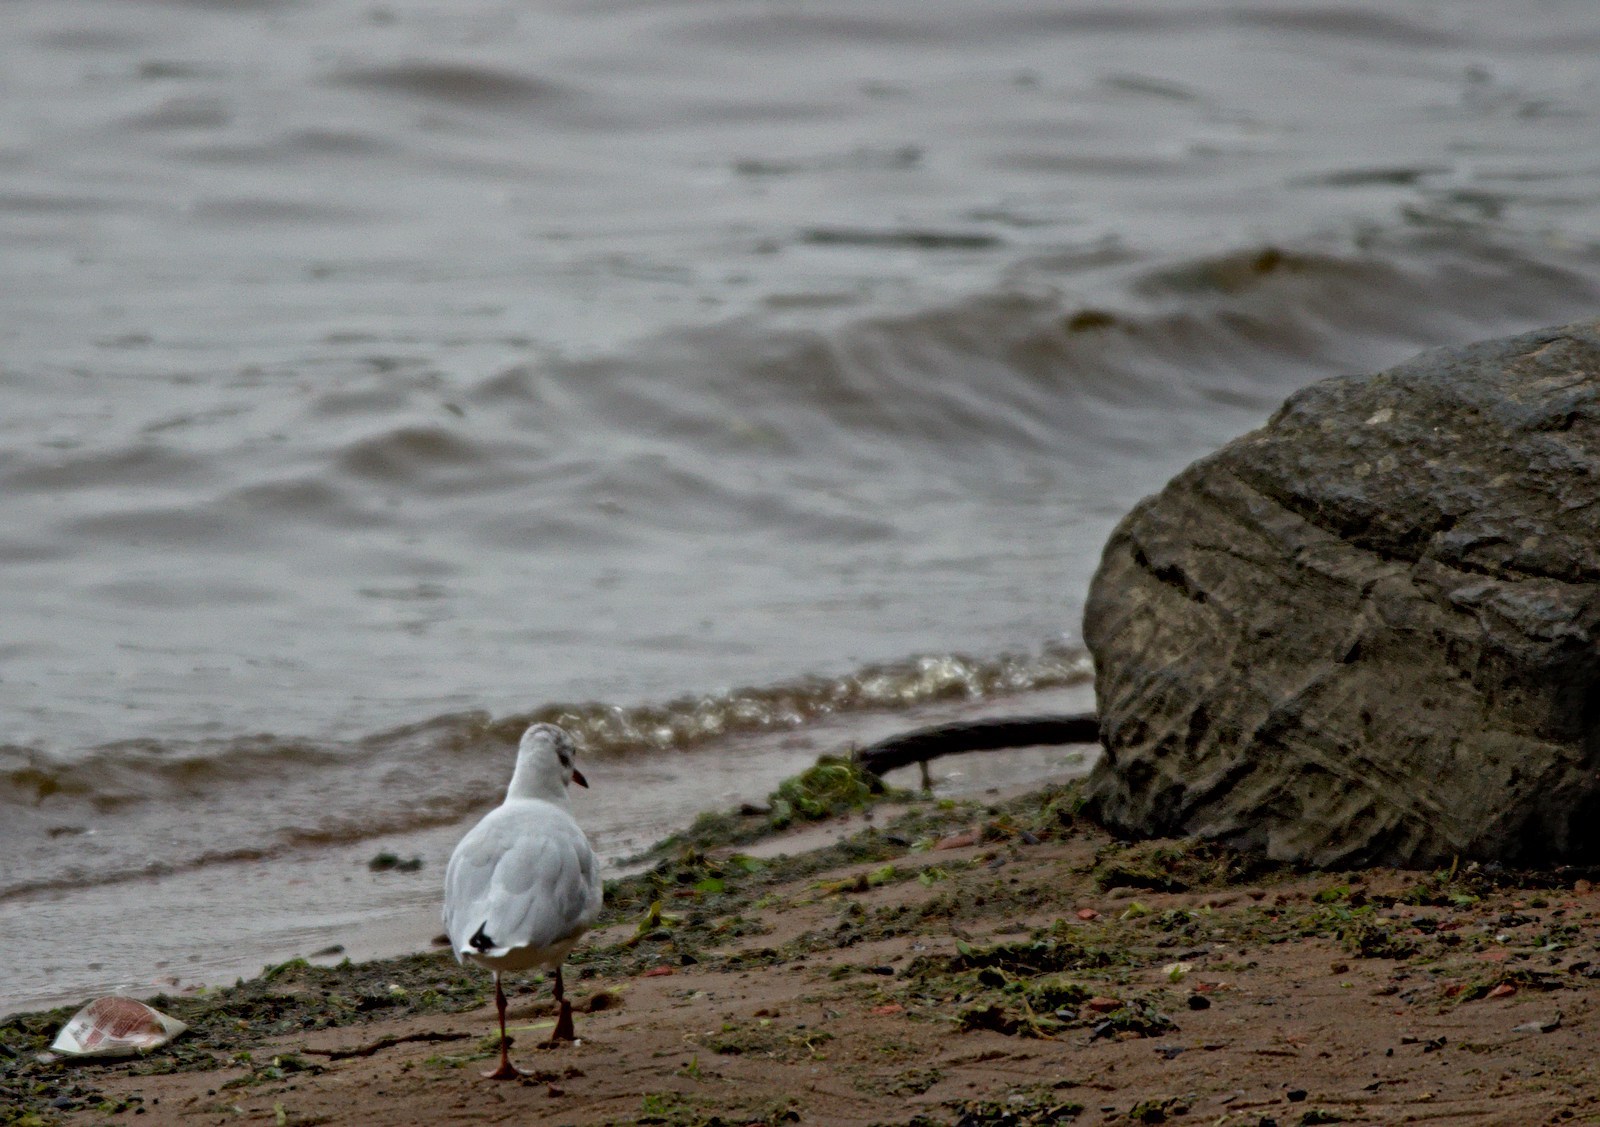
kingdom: Animalia
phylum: Chordata
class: Aves
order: Charadriiformes
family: Laridae
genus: Chroicocephalus
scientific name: Chroicocephalus ridibundus
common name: Black-headed gull
